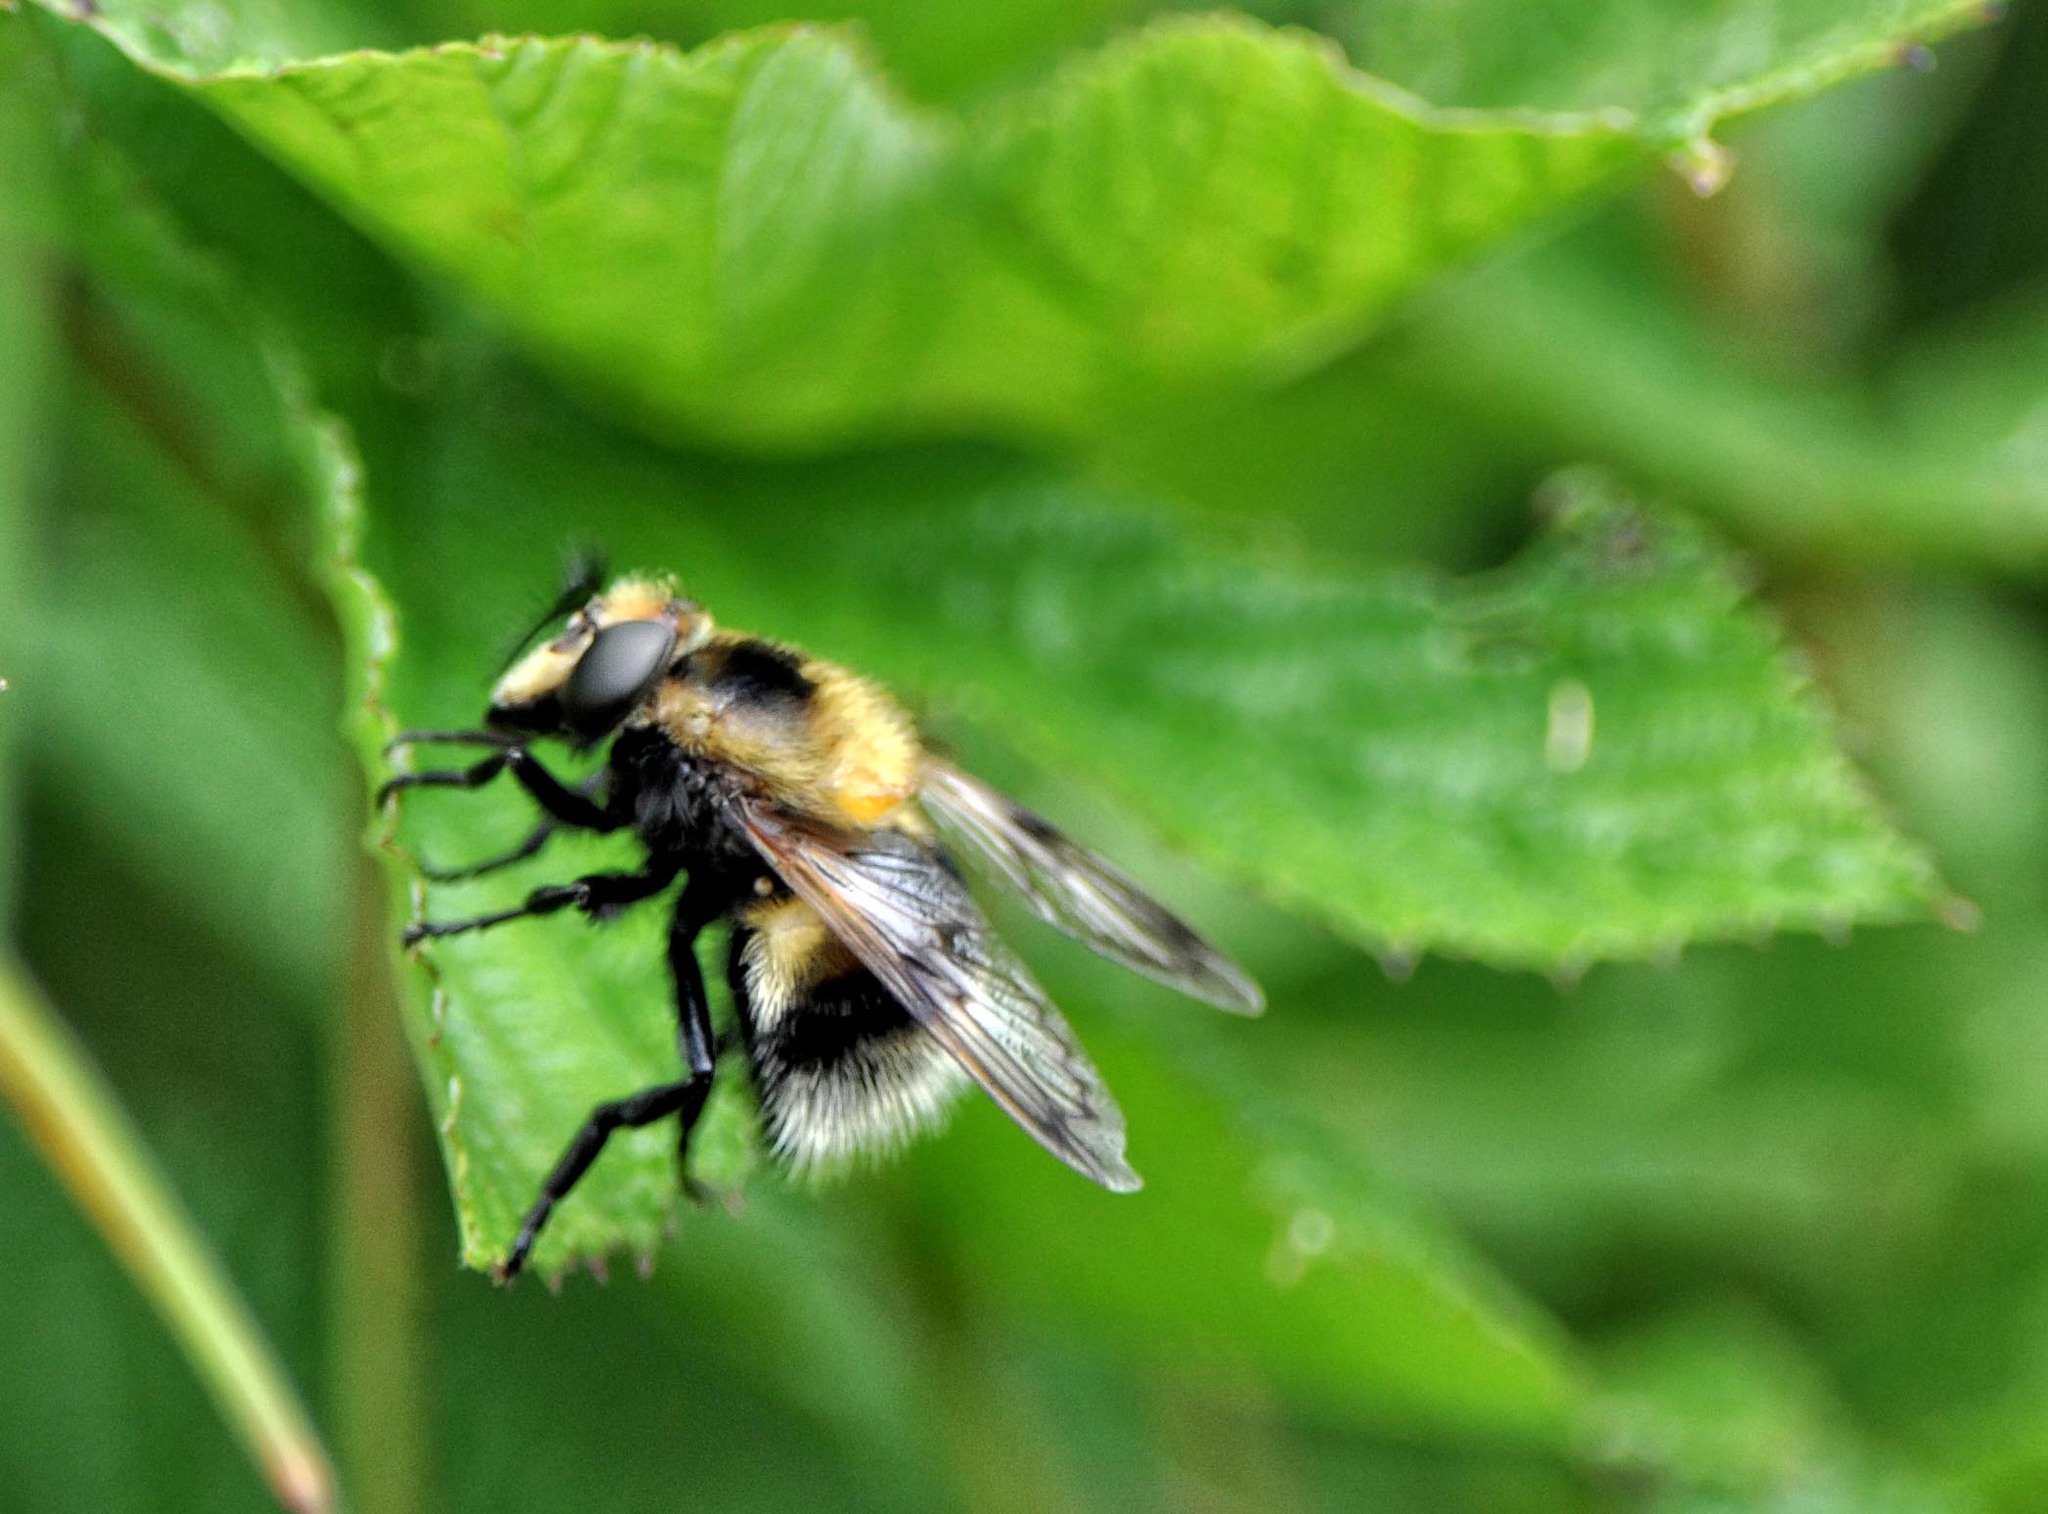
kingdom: Animalia
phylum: Arthropoda
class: Insecta
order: Diptera
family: Syrphidae
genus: Volucella
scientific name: Volucella bombylans
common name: Bumble bee hover fly
